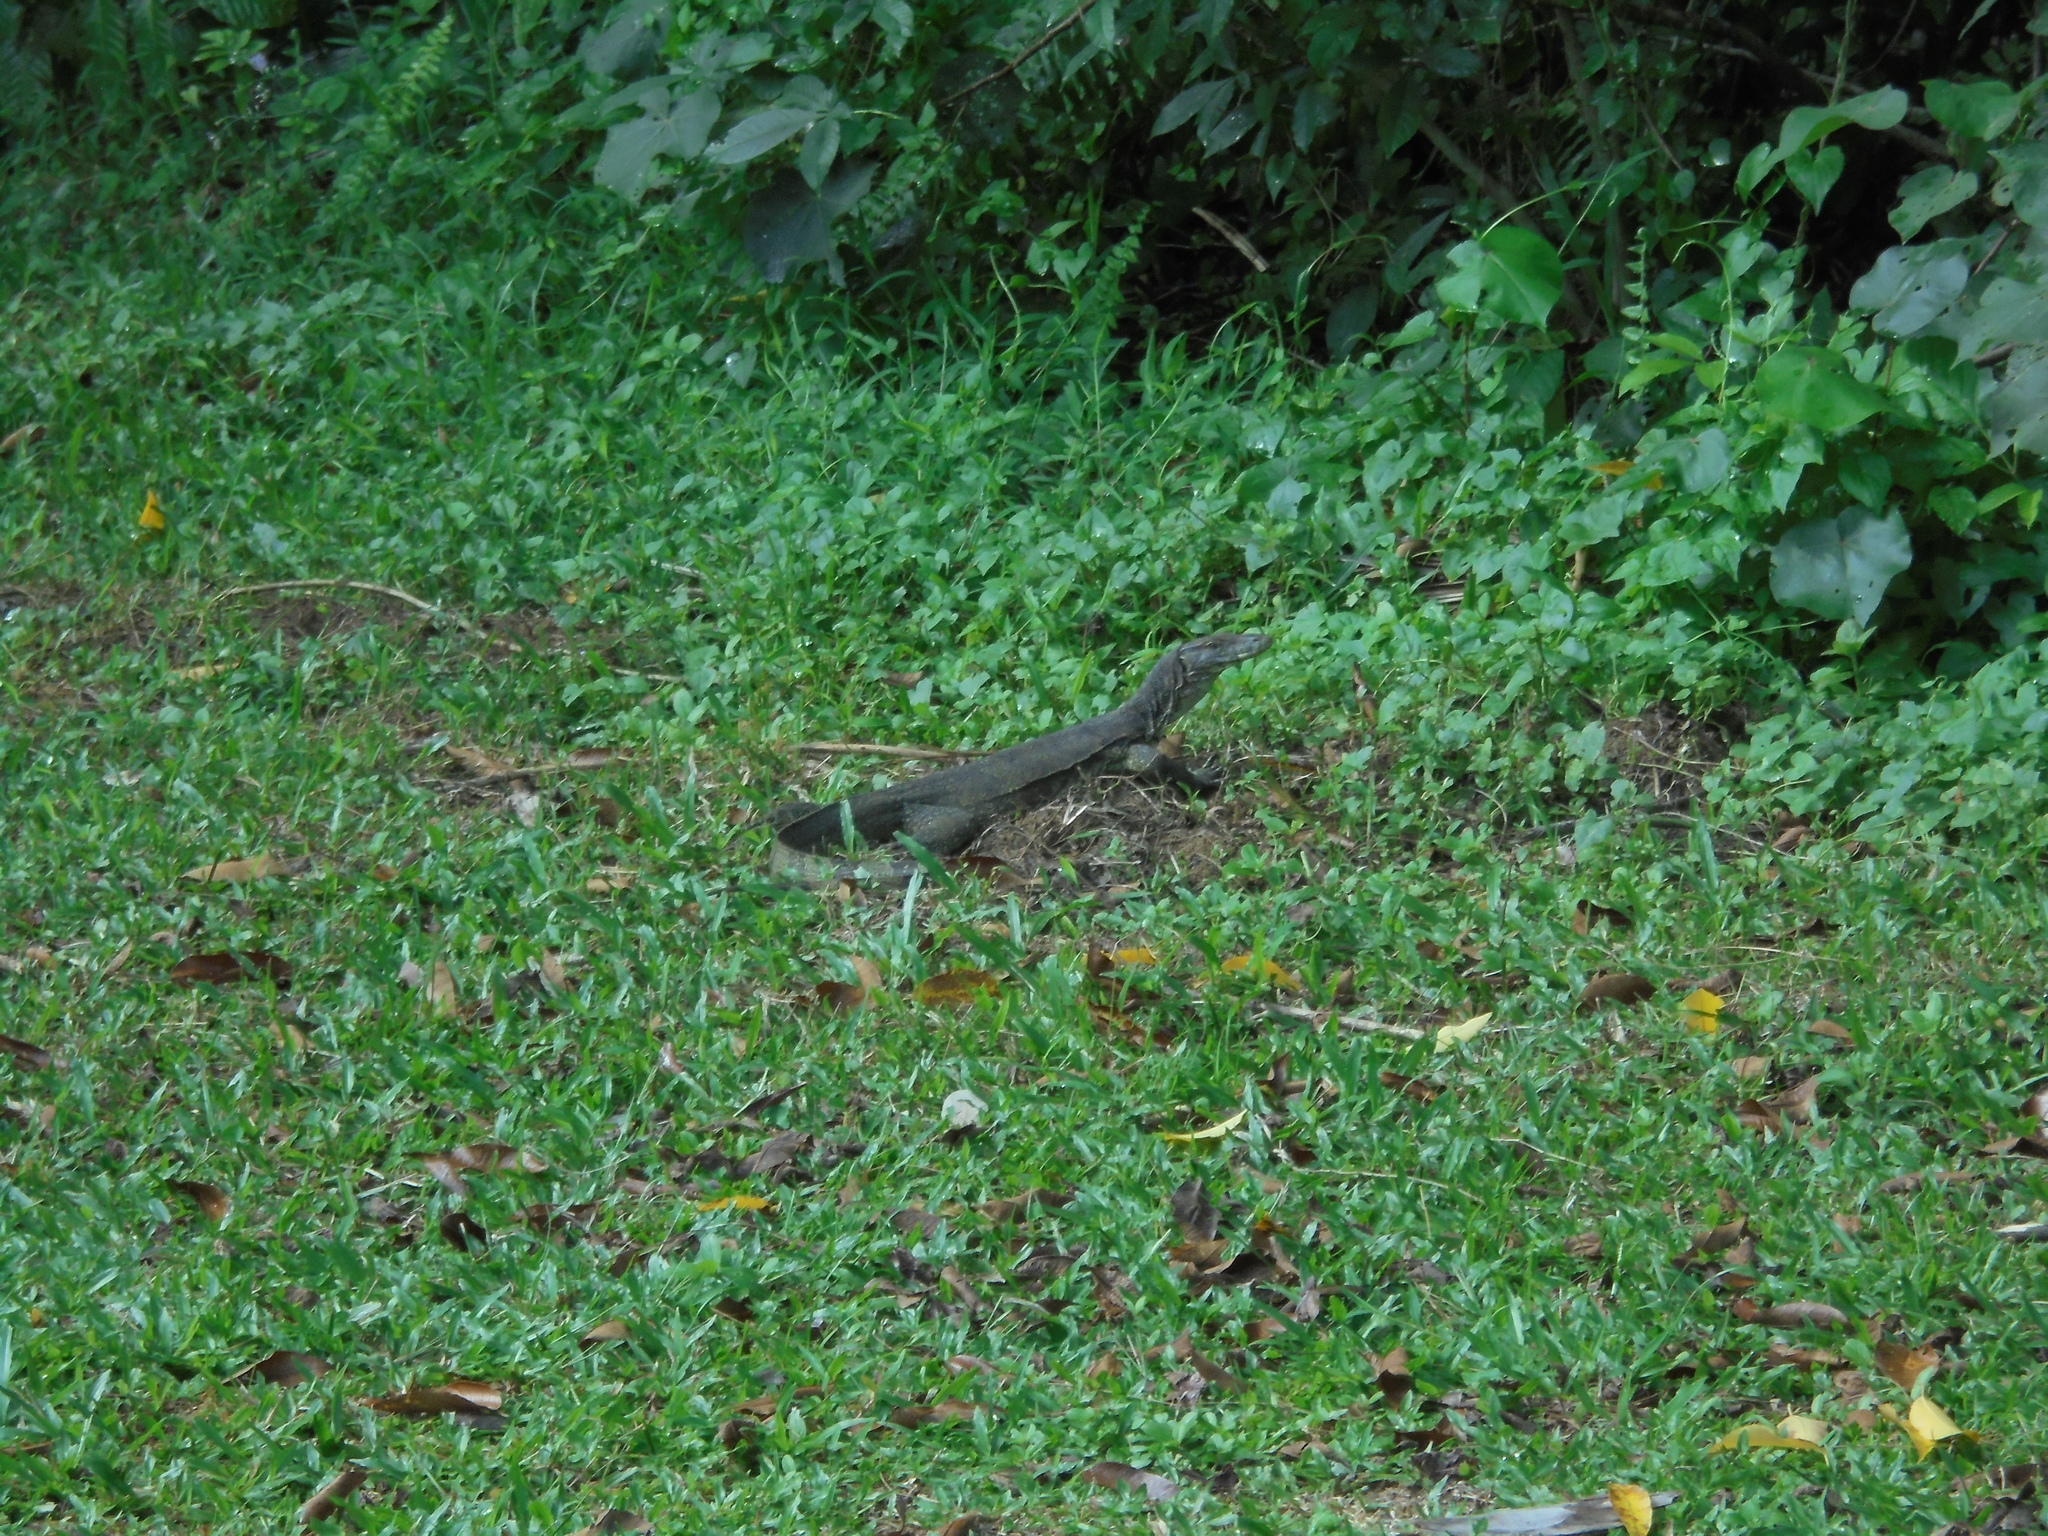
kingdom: Animalia
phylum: Chordata
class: Squamata
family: Varanidae
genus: Varanus
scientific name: Varanus salvator
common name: Common water monitor
